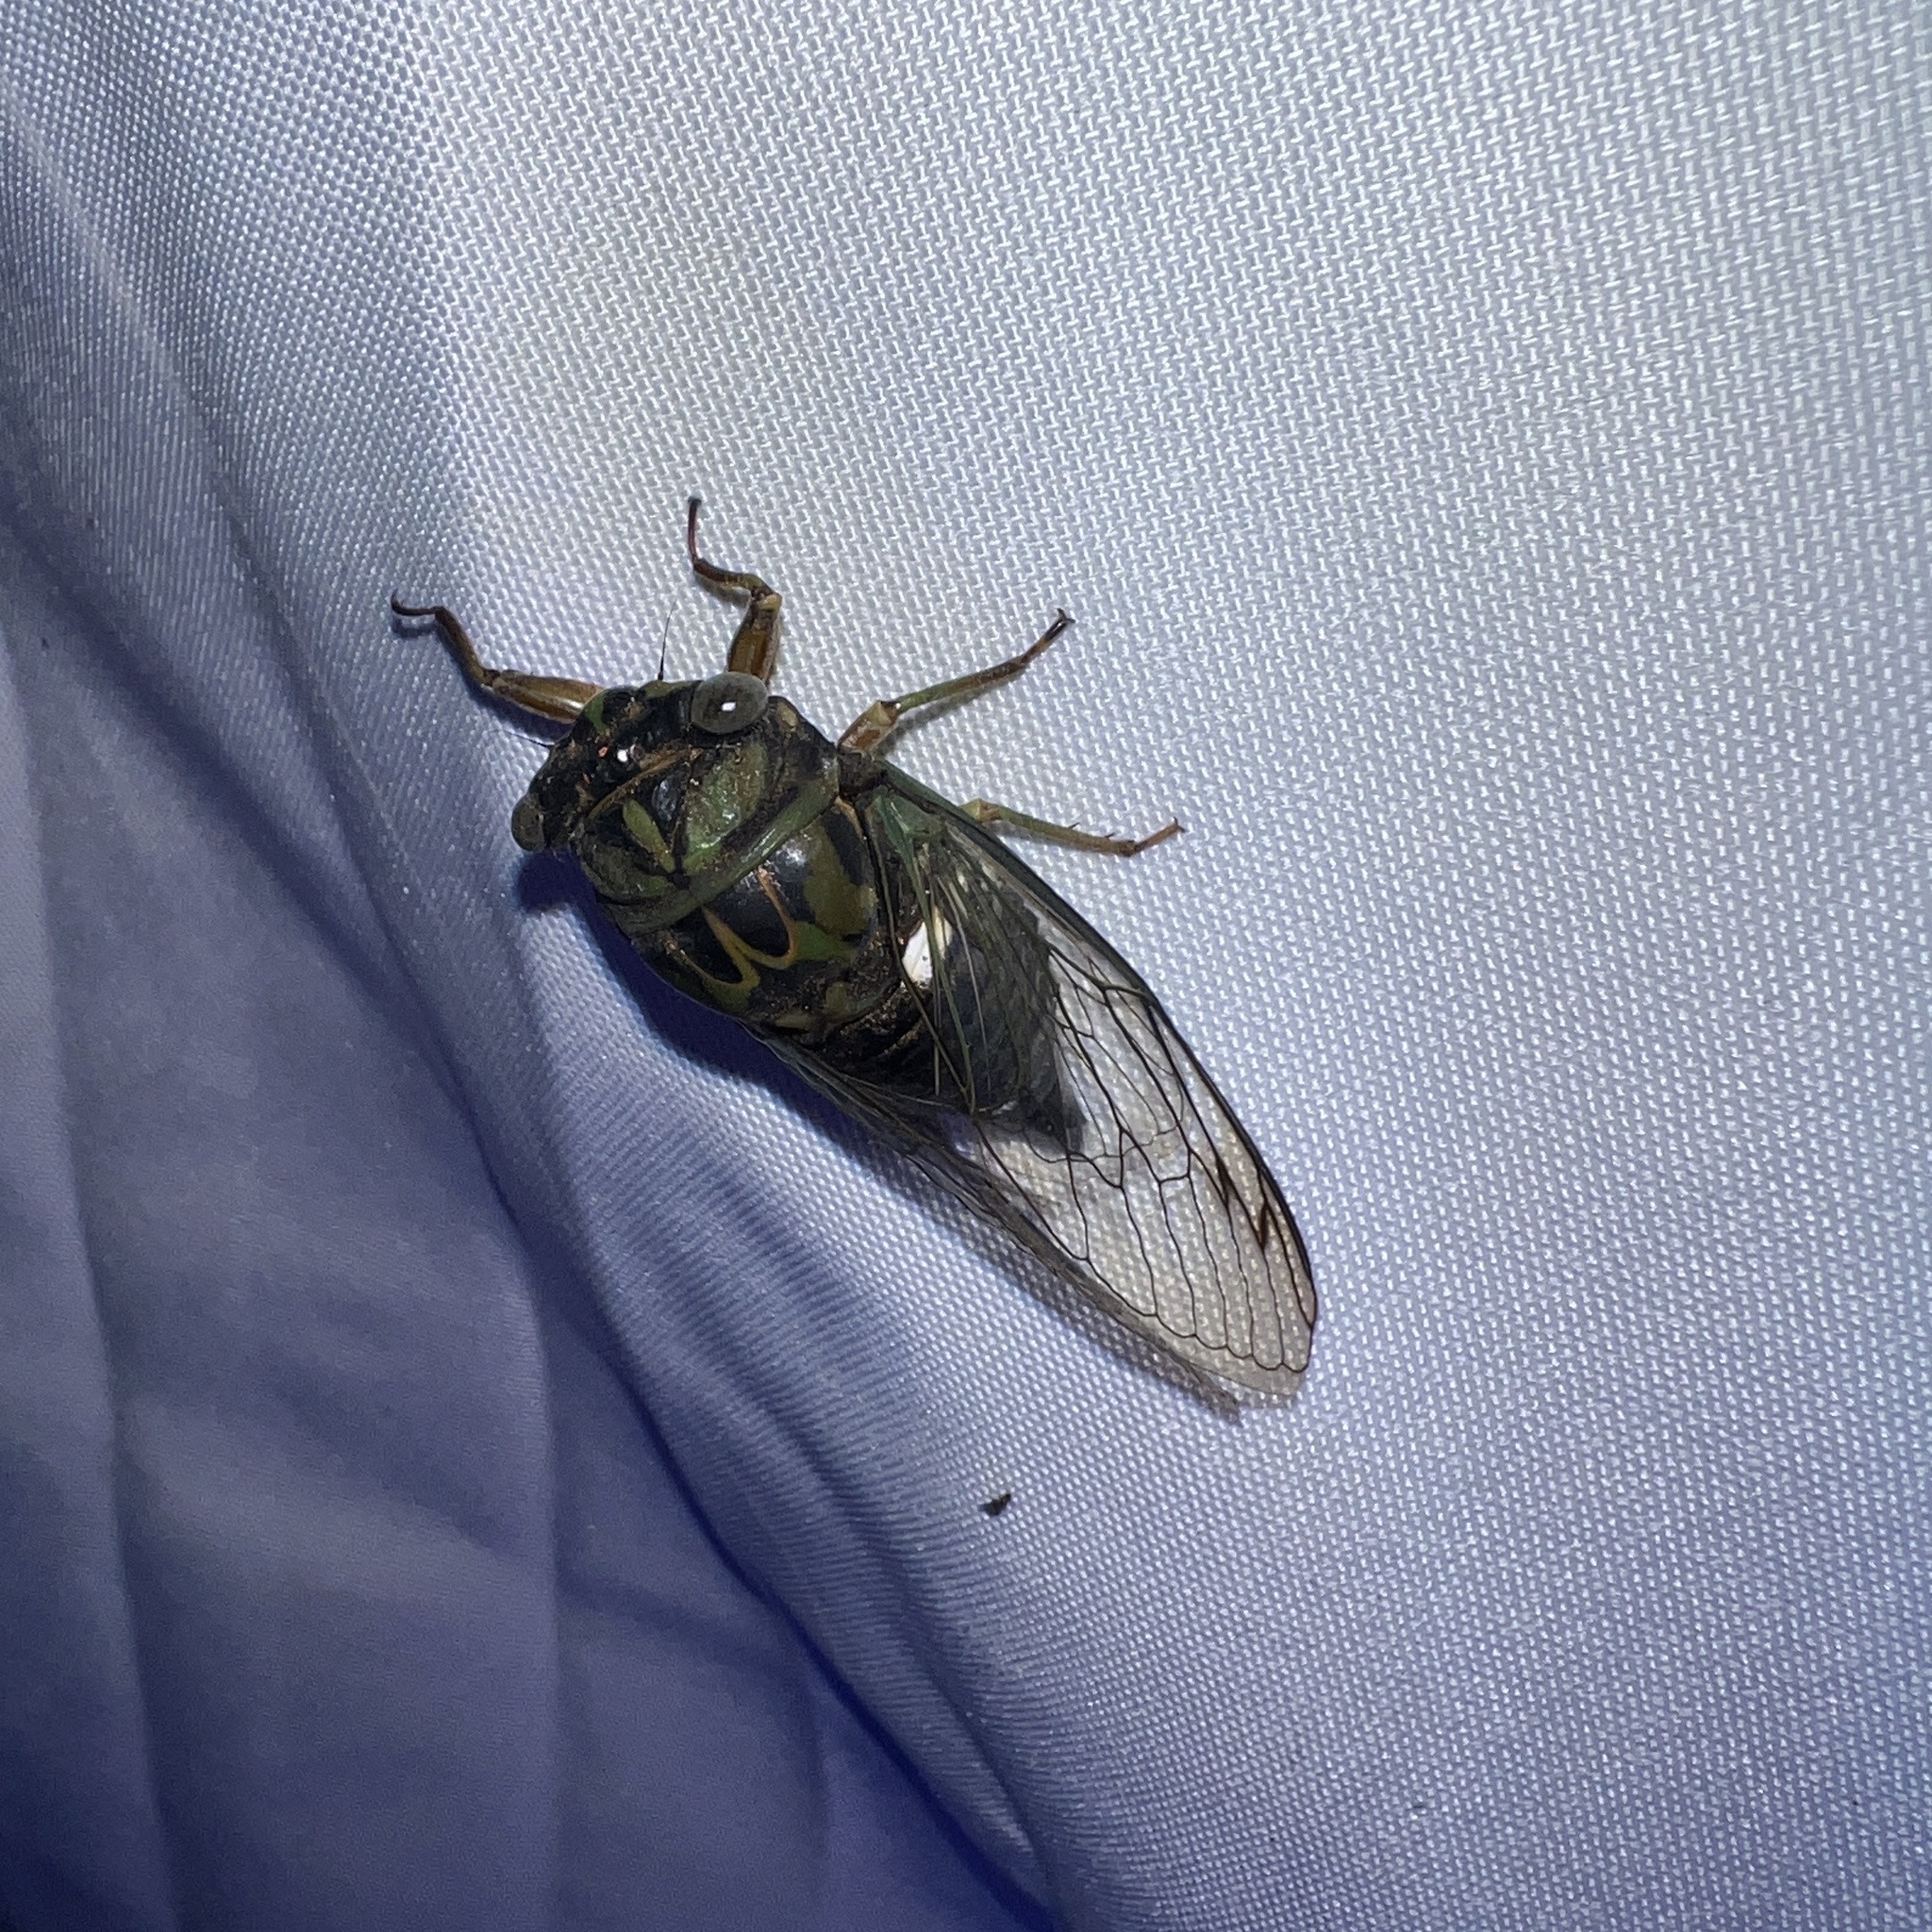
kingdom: Animalia
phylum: Arthropoda
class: Insecta
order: Hemiptera
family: Cicadidae
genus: Neotibicen
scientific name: Neotibicen pruinosus
